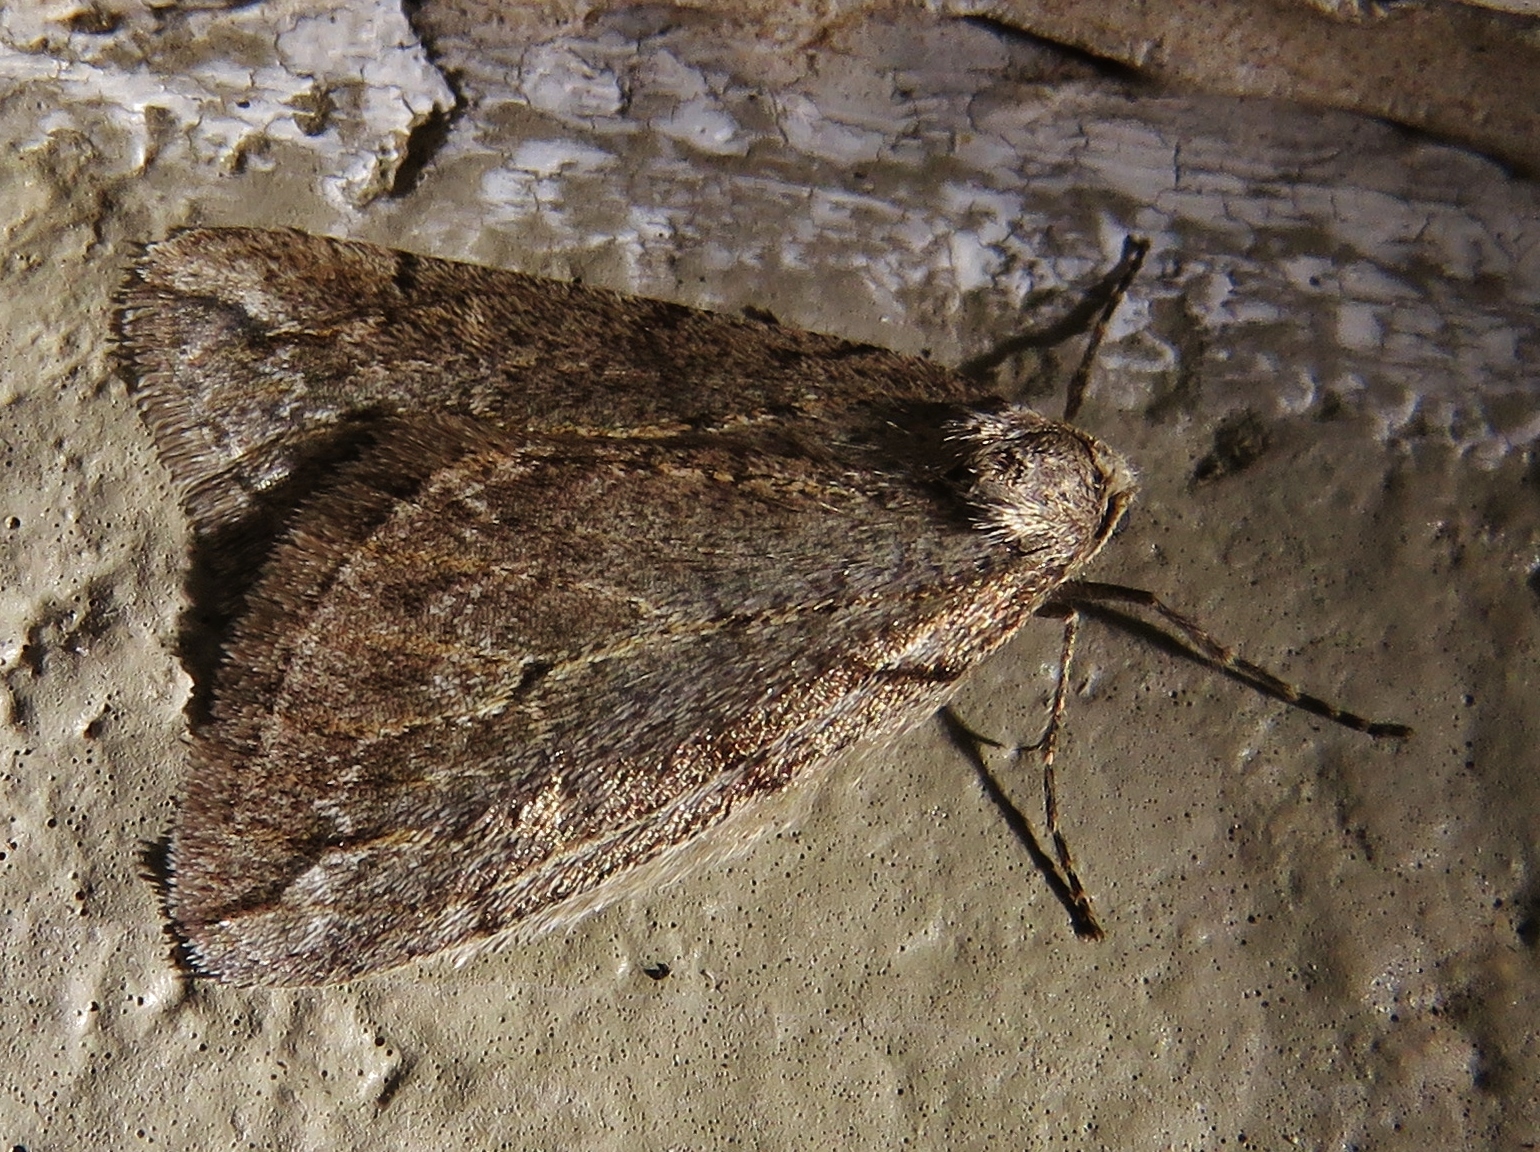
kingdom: Animalia
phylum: Arthropoda
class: Insecta
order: Lepidoptera
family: Geometridae
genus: Paleacrita
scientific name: Paleacrita vernata
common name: Spring cankerworm
